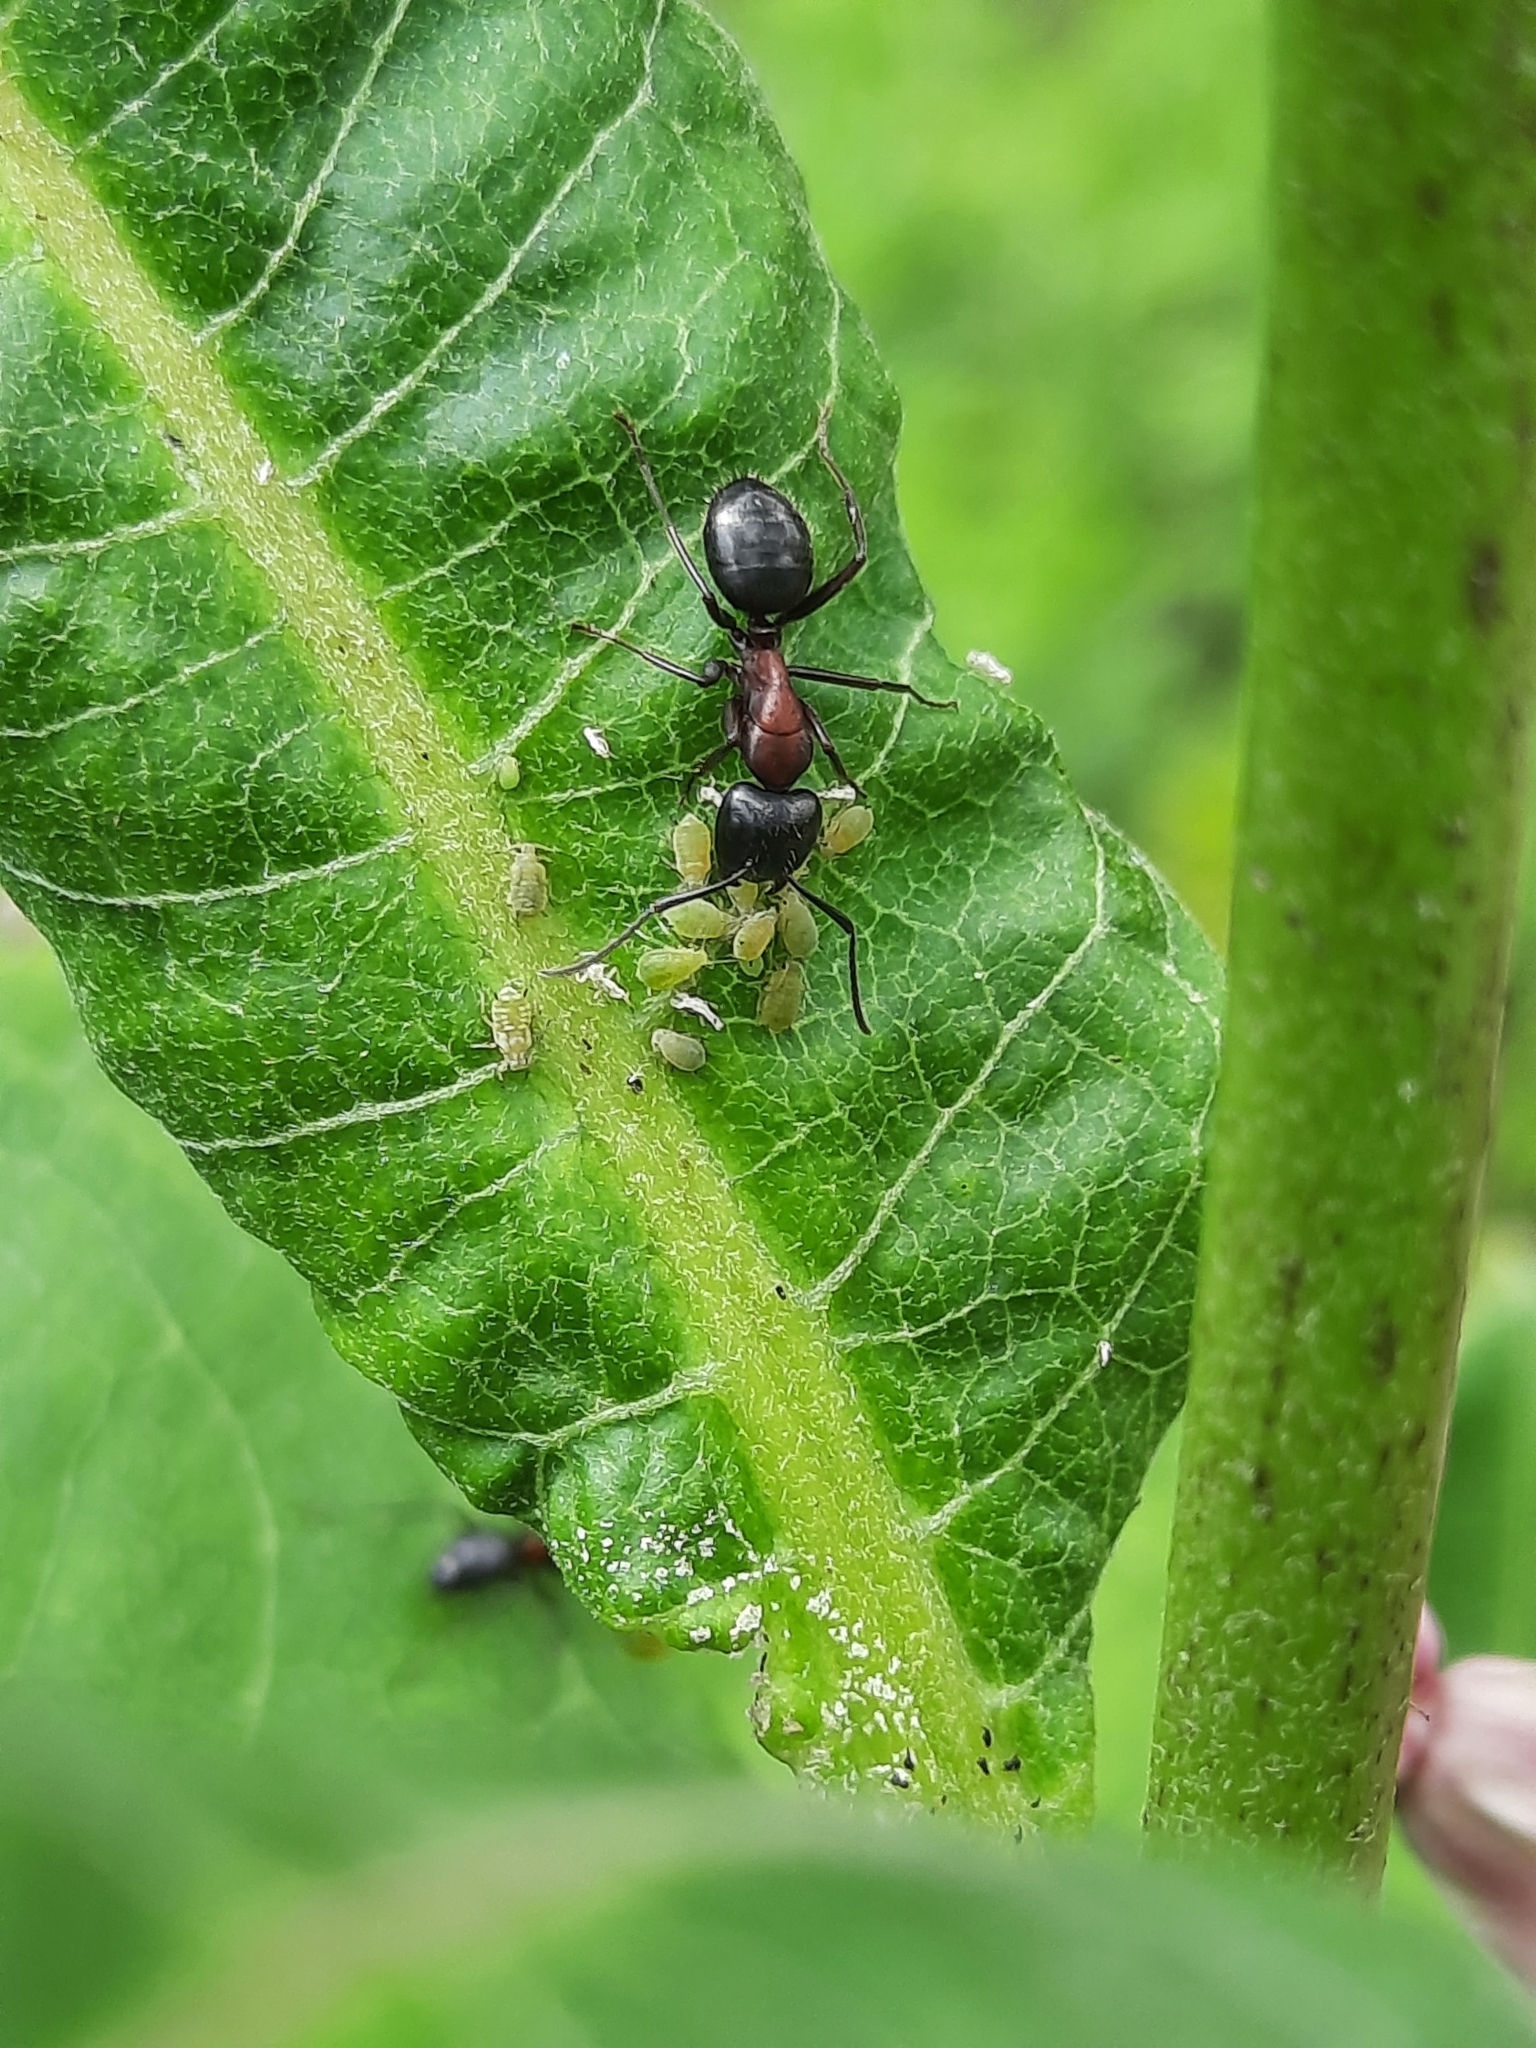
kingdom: Animalia
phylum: Arthropoda
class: Insecta
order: Hymenoptera
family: Formicidae
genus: Camponotus
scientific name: Camponotus novaeboracensis
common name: New york carpenter ant
